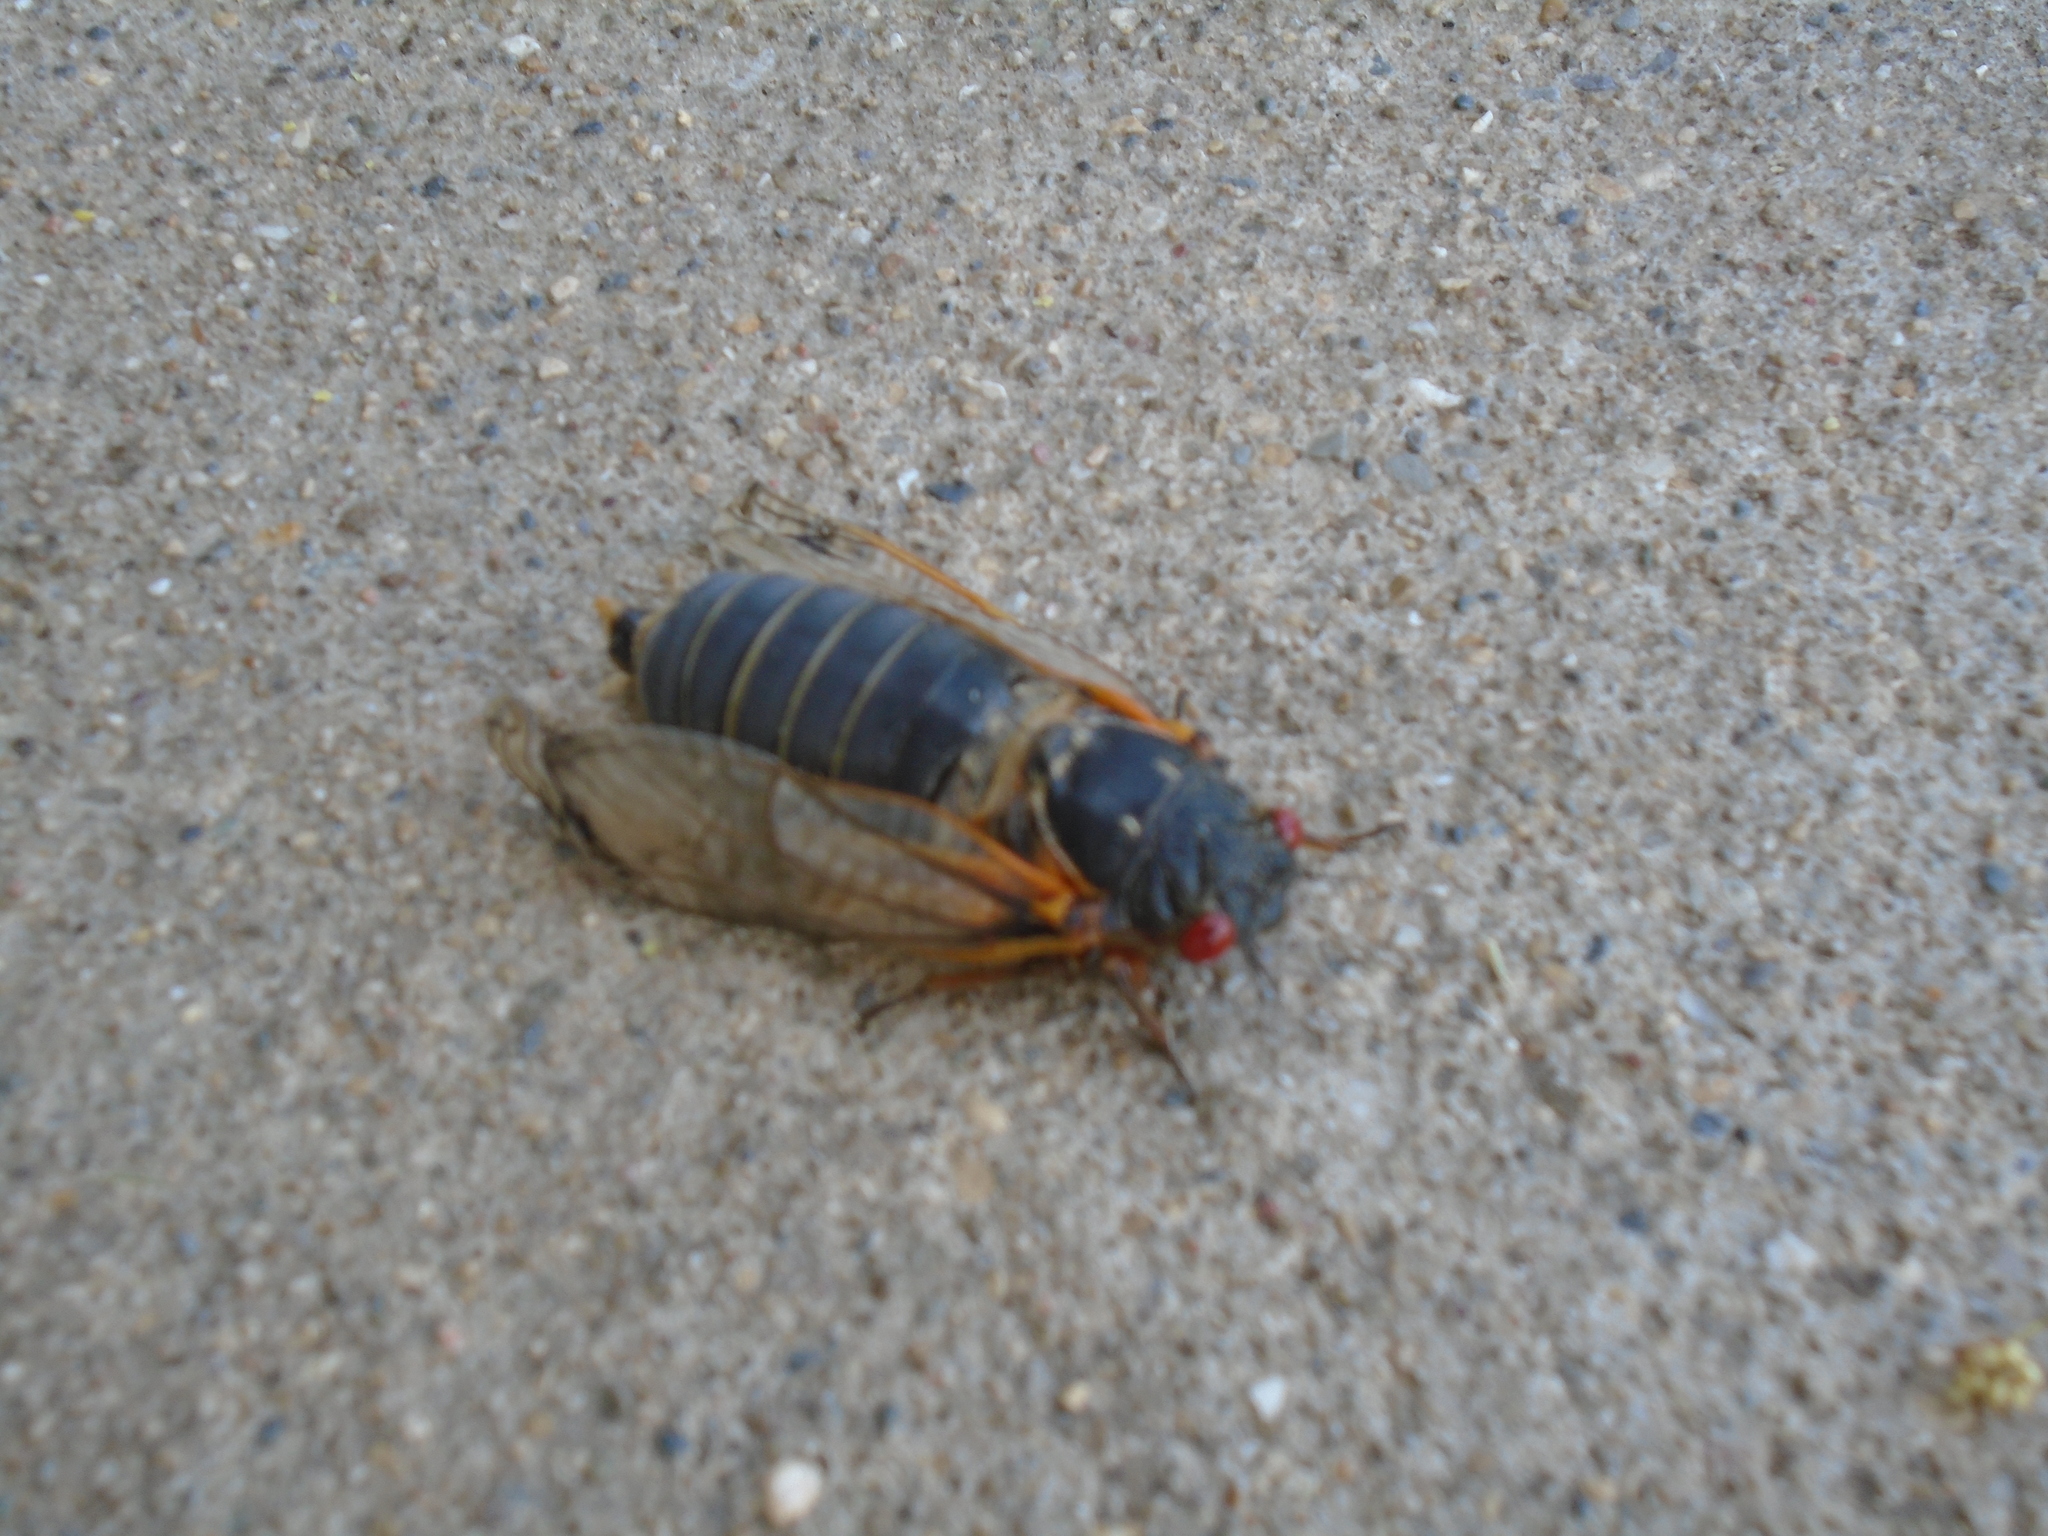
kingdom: Animalia
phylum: Arthropoda
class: Insecta
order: Hemiptera
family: Cicadidae
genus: Magicicada
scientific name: Magicicada septendecim
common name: Periodical cicada
